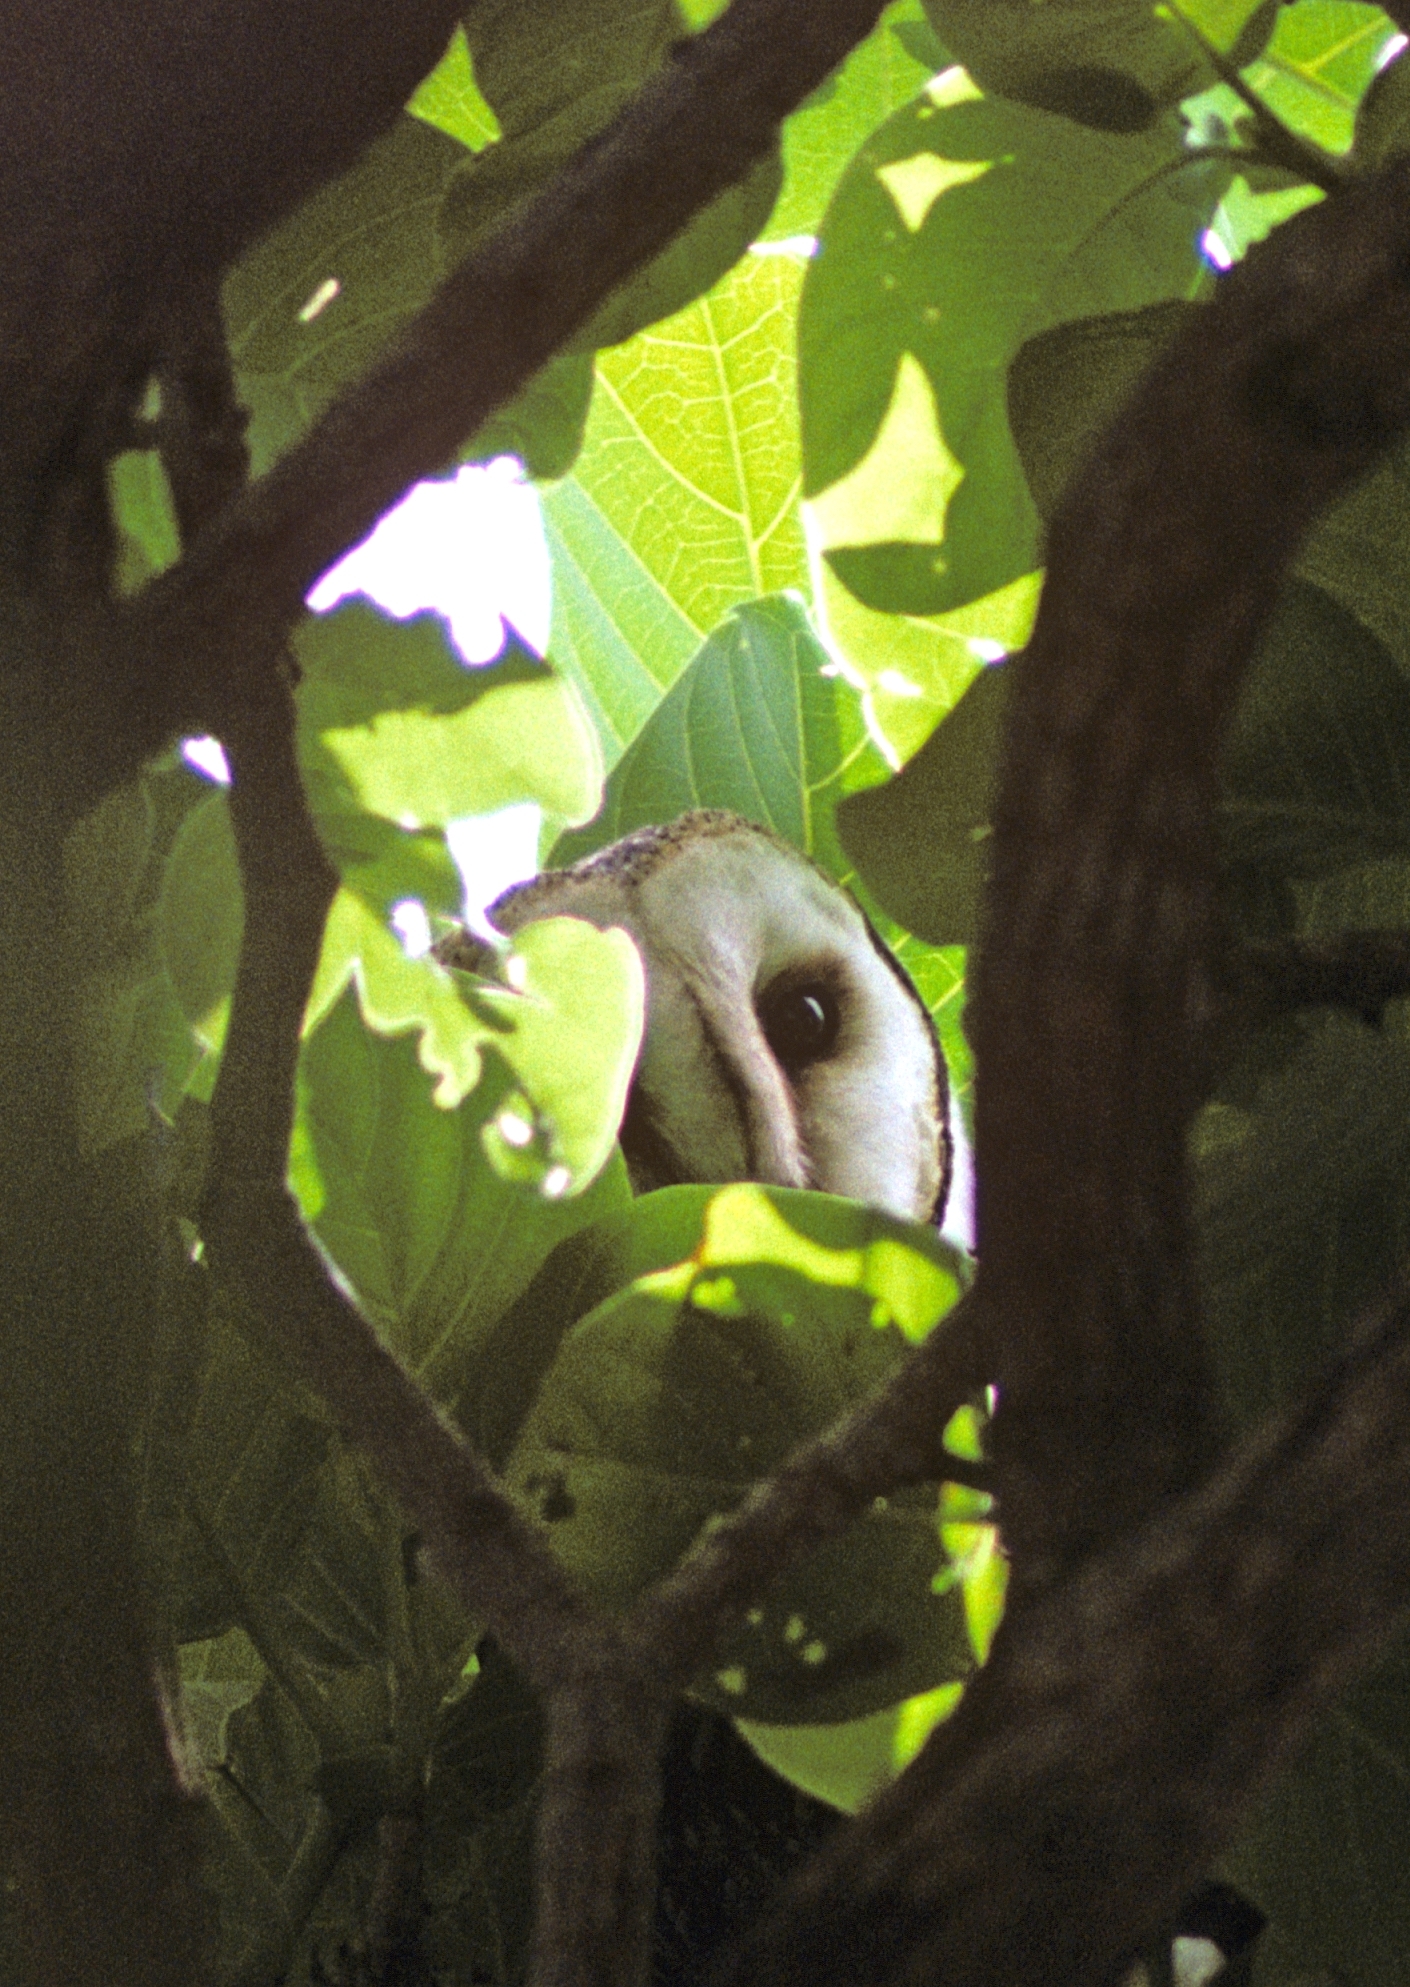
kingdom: Animalia
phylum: Chordata
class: Aves
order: Strigiformes
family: Tytonidae
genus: Tyto
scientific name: Tyto novaehollandiae
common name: Australian masked owl
